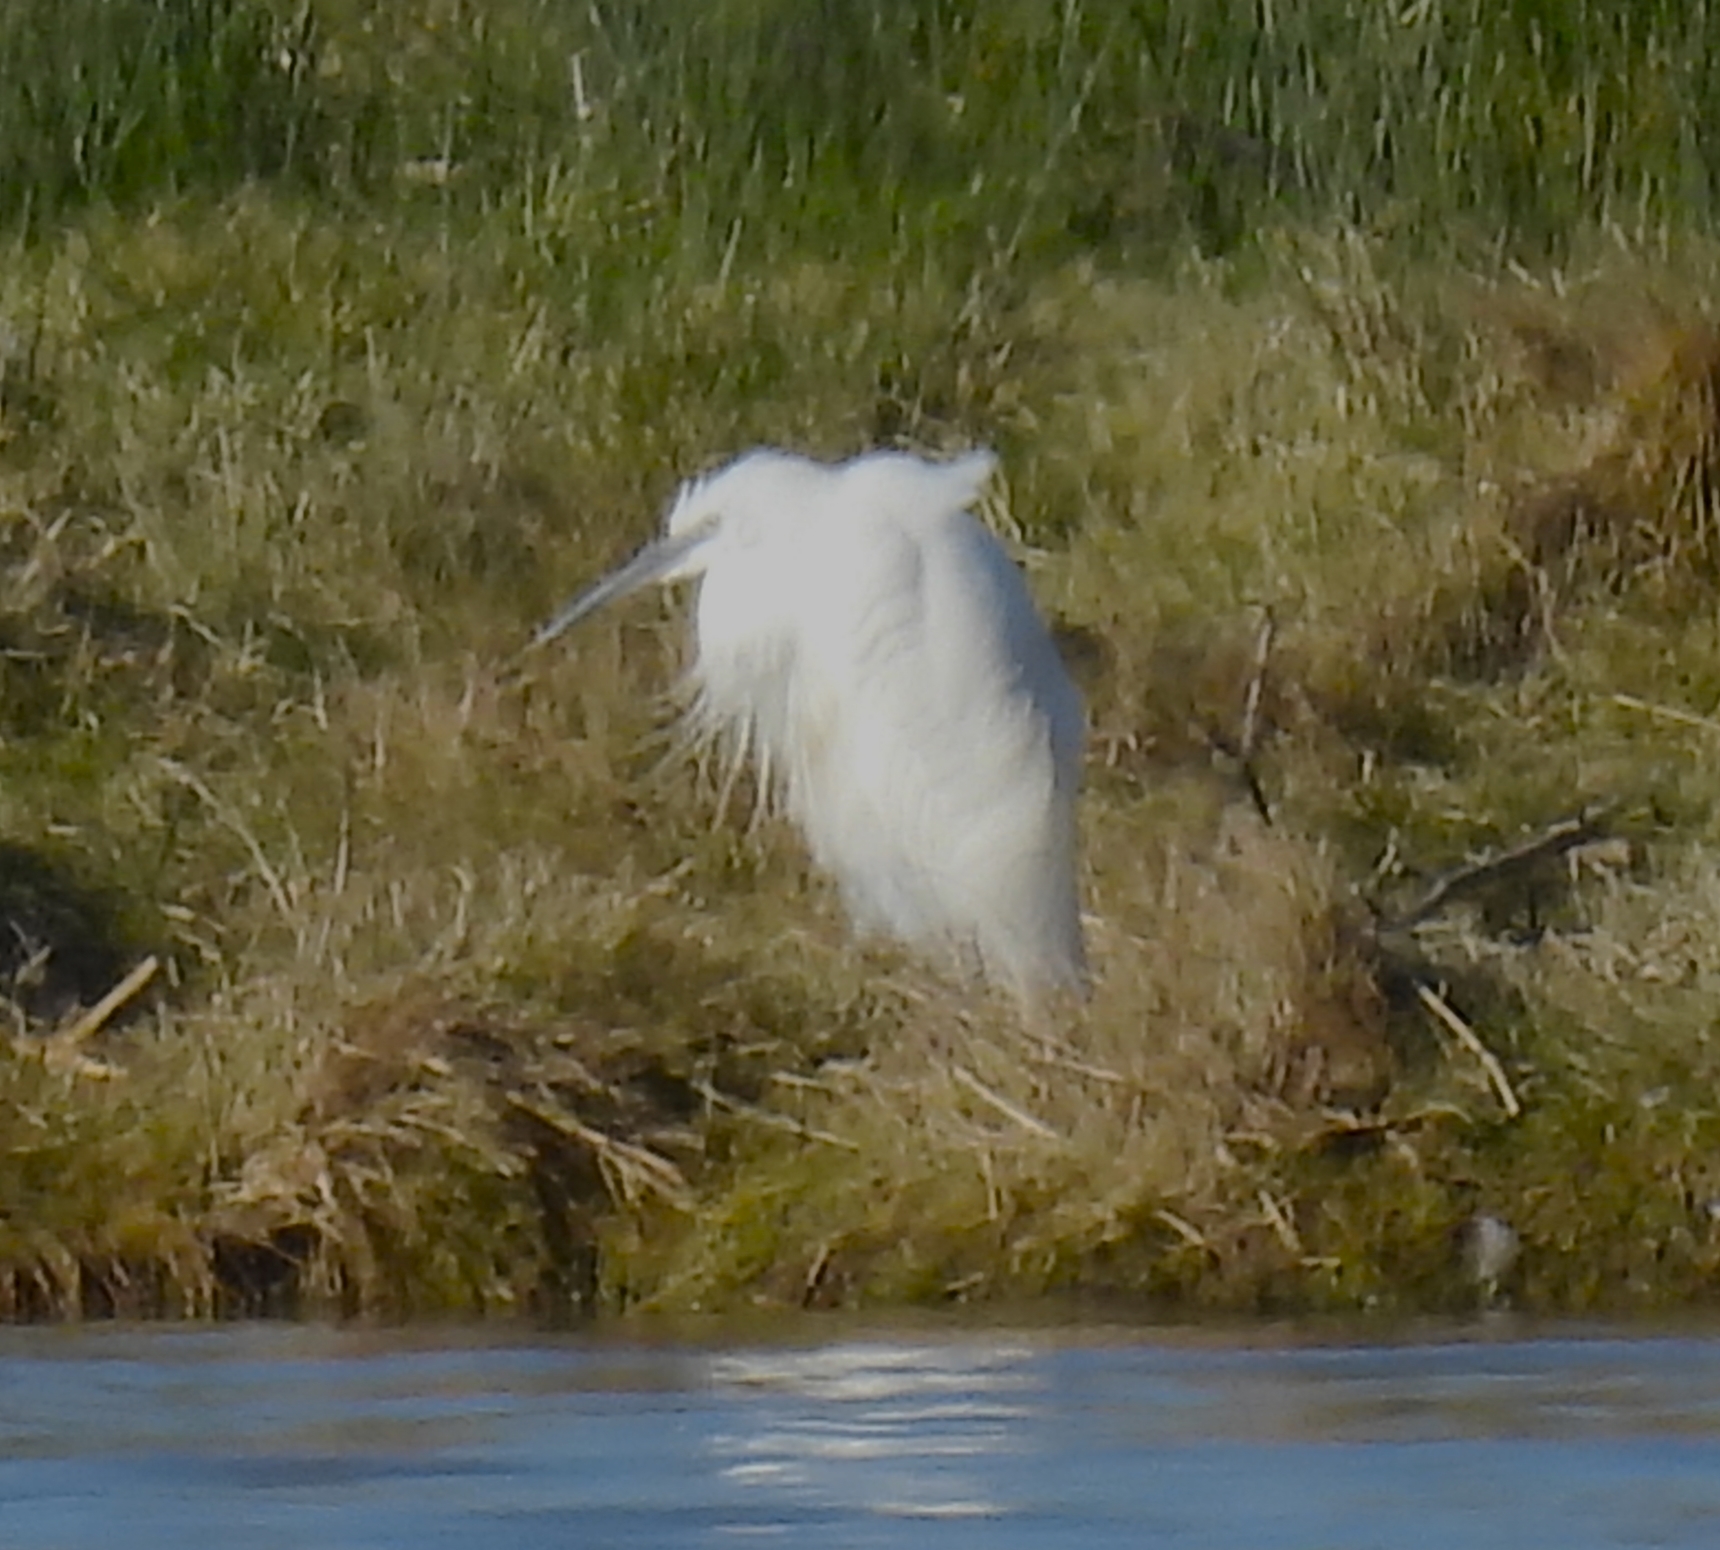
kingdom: Animalia
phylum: Chordata
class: Aves
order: Pelecaniformes
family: Ardeidae
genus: Egretta
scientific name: Egretta garzetta
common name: Little egret
